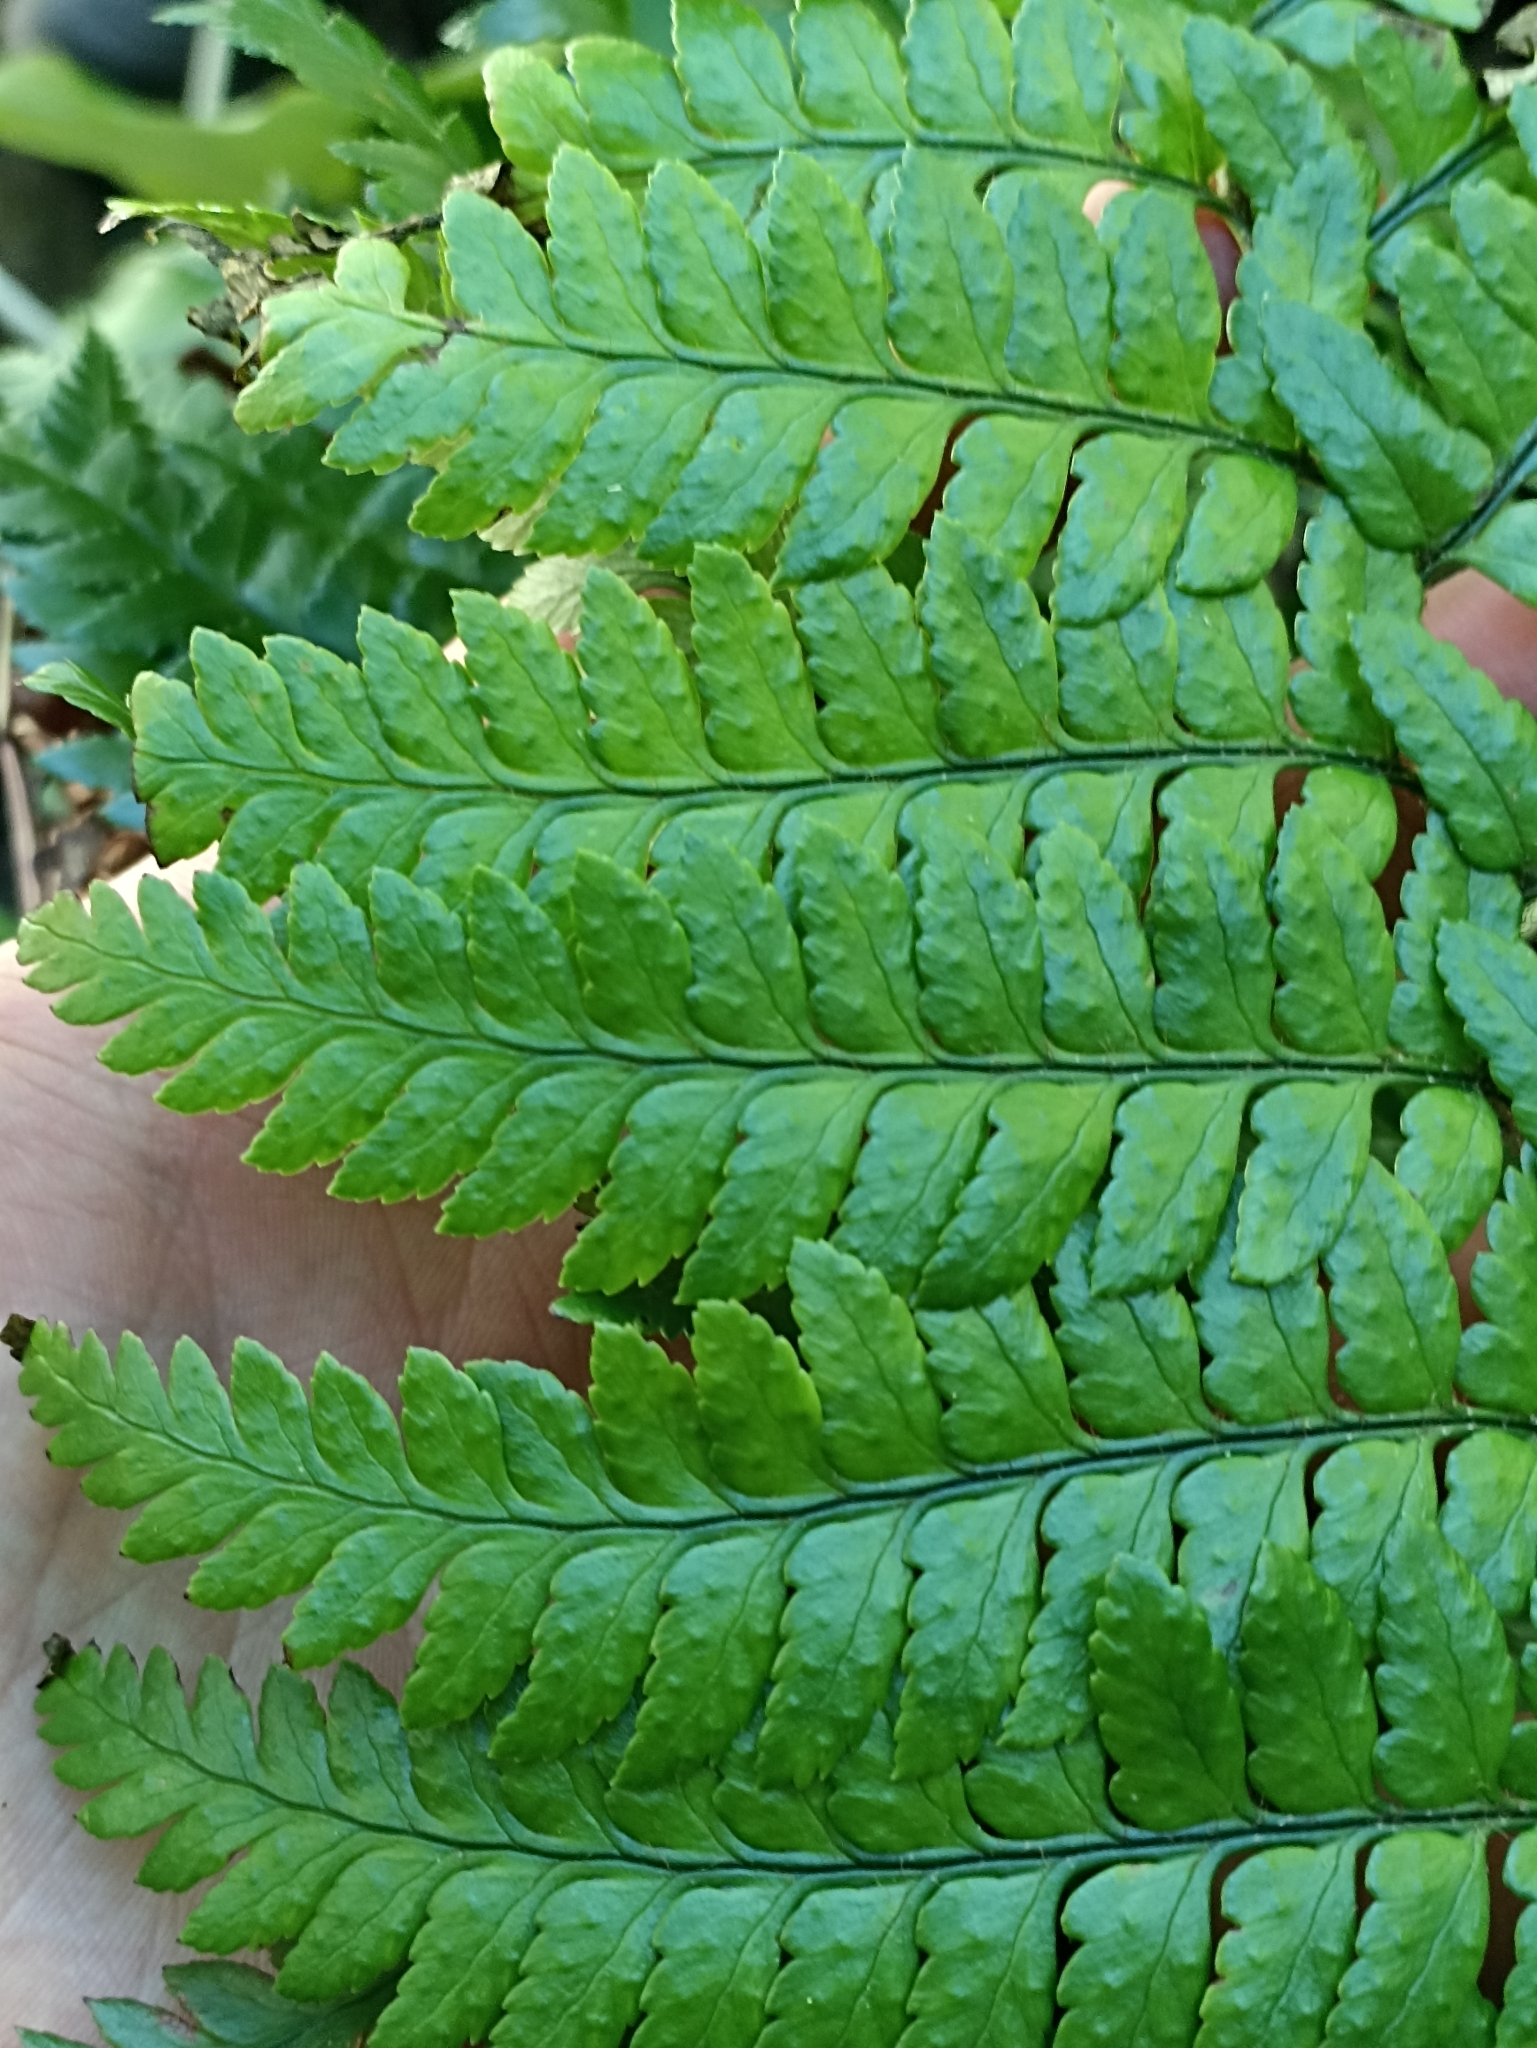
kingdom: Plantae
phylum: Tracheophyta
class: Polypodiopsida
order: Polypodiales
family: Dryopteridaceae
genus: Polystichum
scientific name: Polystichum wawranum
